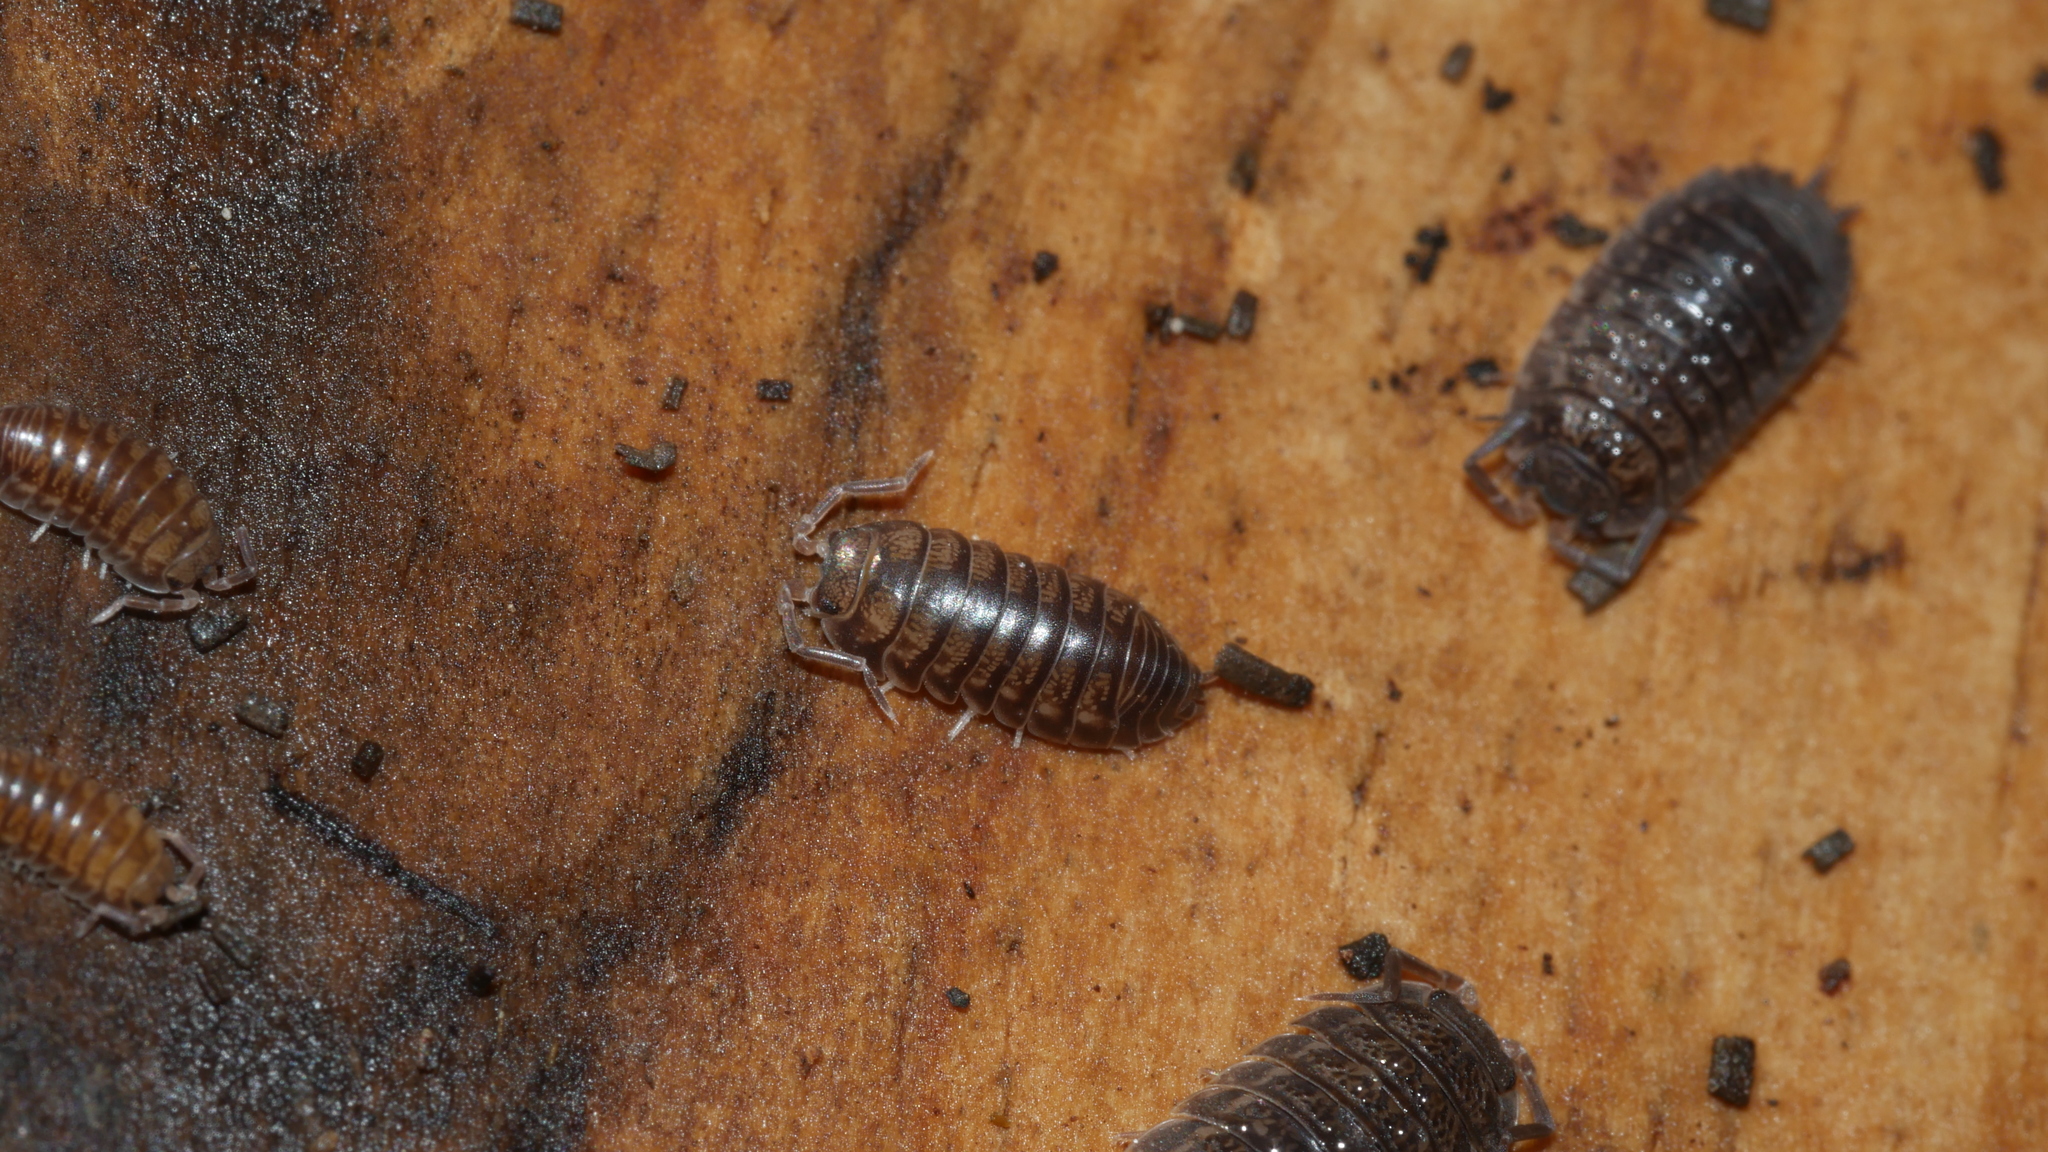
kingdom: Animalia
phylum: Arthropoda
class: Malacostraca
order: Isopoda
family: Cylisticidae
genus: Cylisticus
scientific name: Cylisticus convexus
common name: Curly woodlouse
